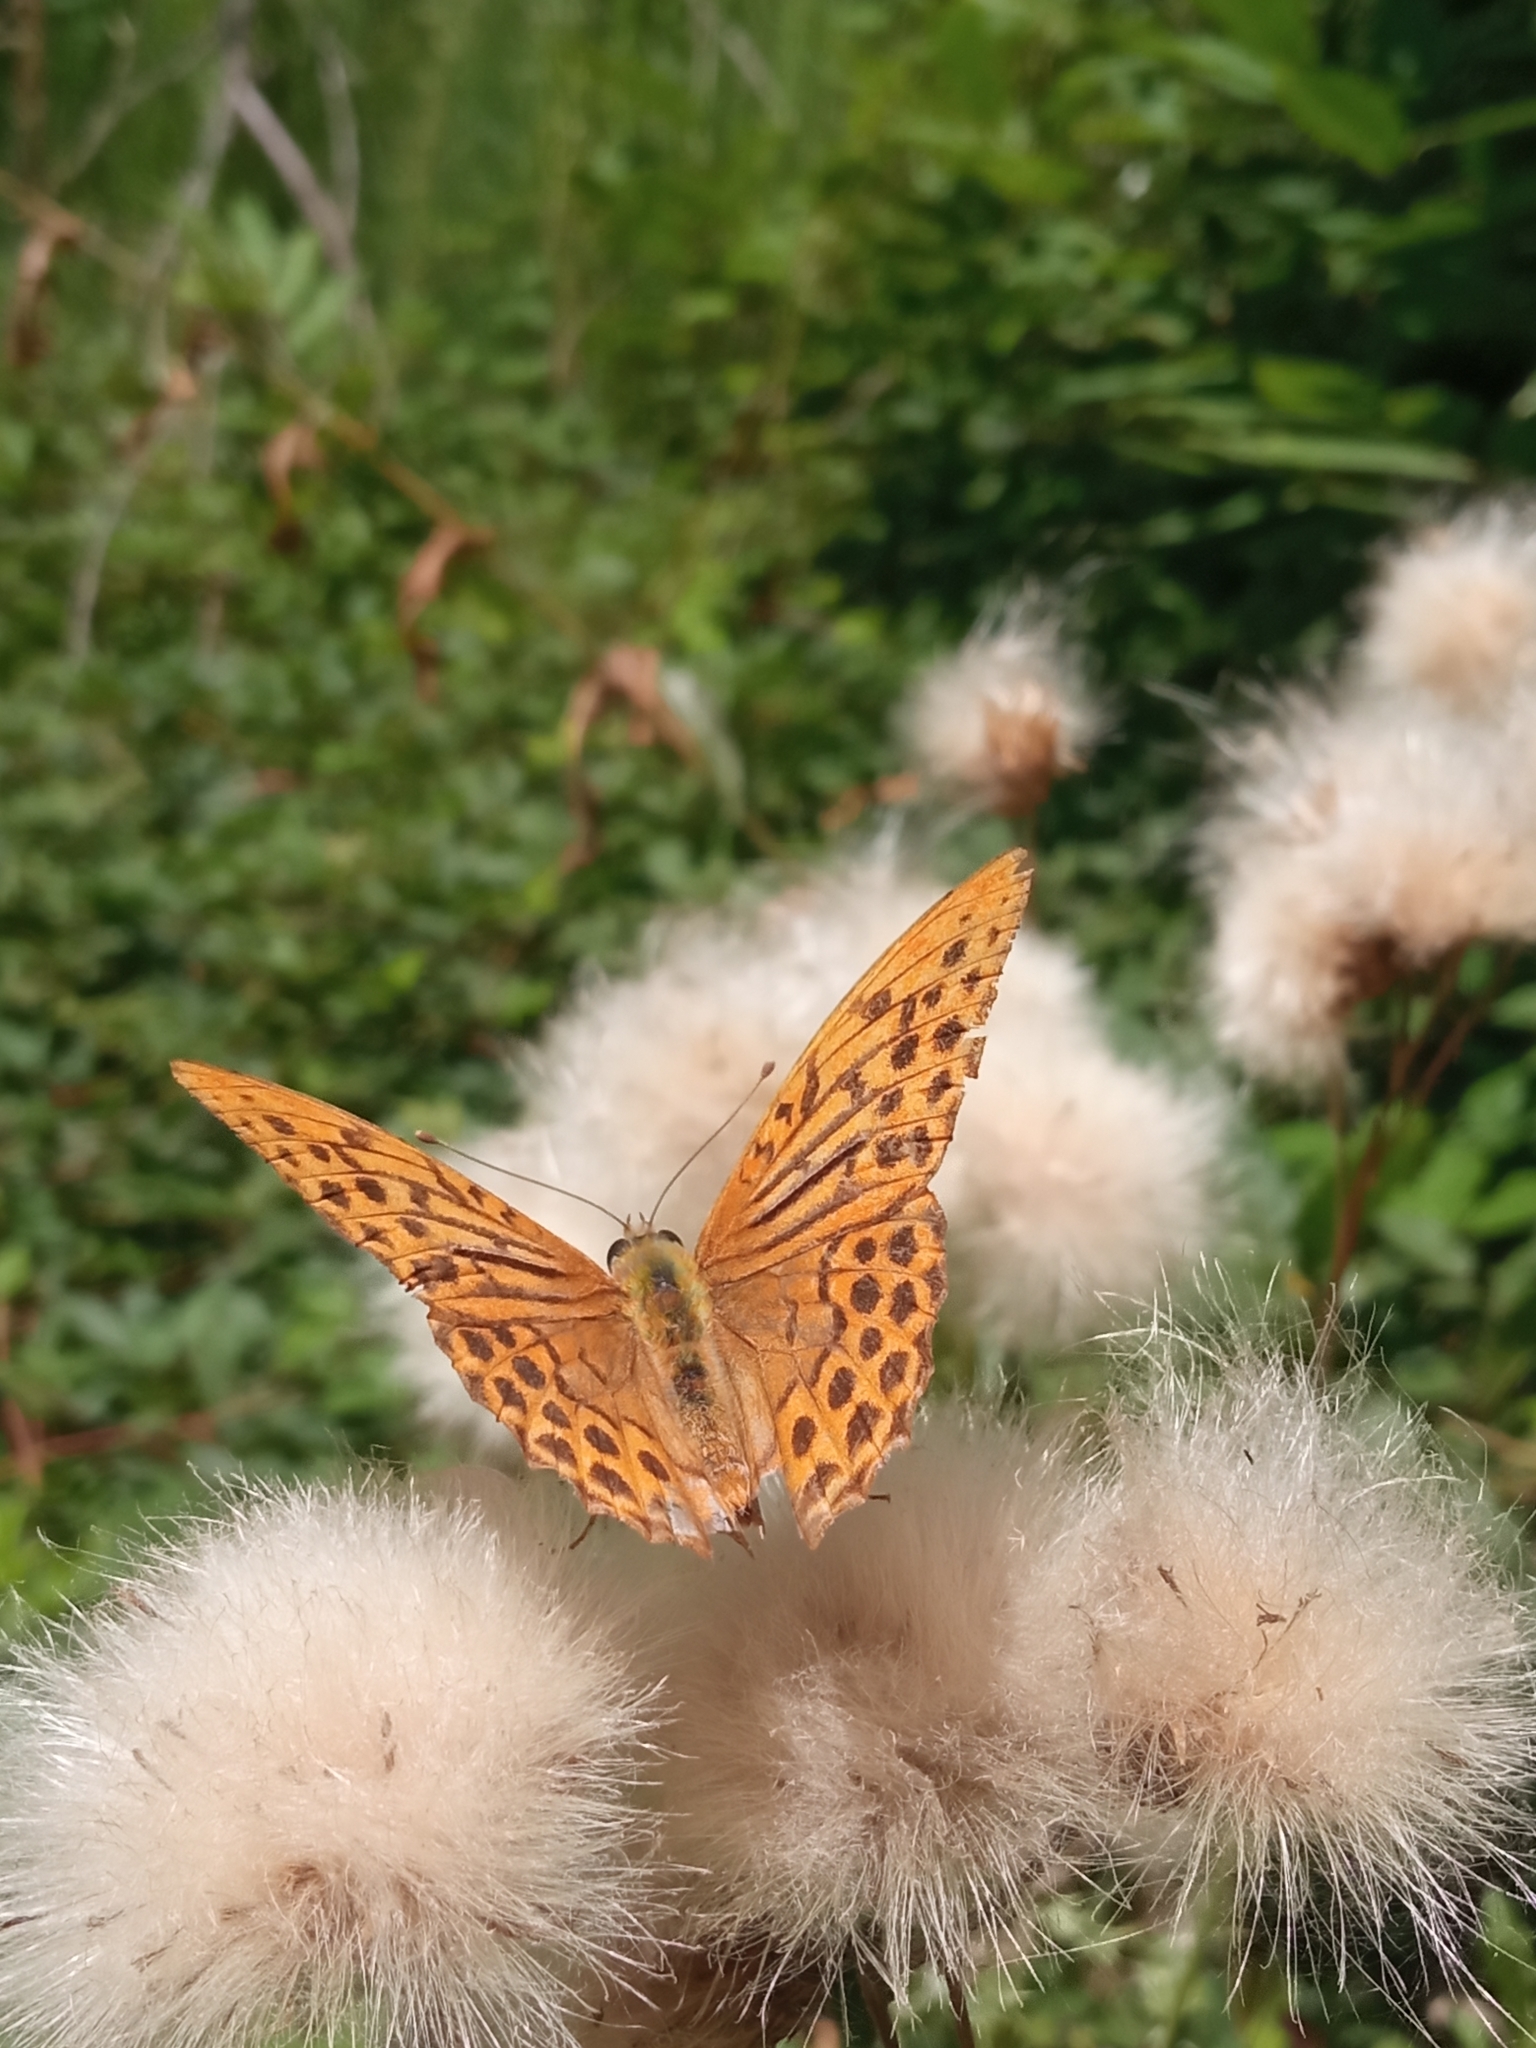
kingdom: Animalia
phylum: Arthropoda
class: Insecta
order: Lepidoptera
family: Nymphalidae
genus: Argynnis
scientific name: Argynnis paphia
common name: Silver-washed fritillary
